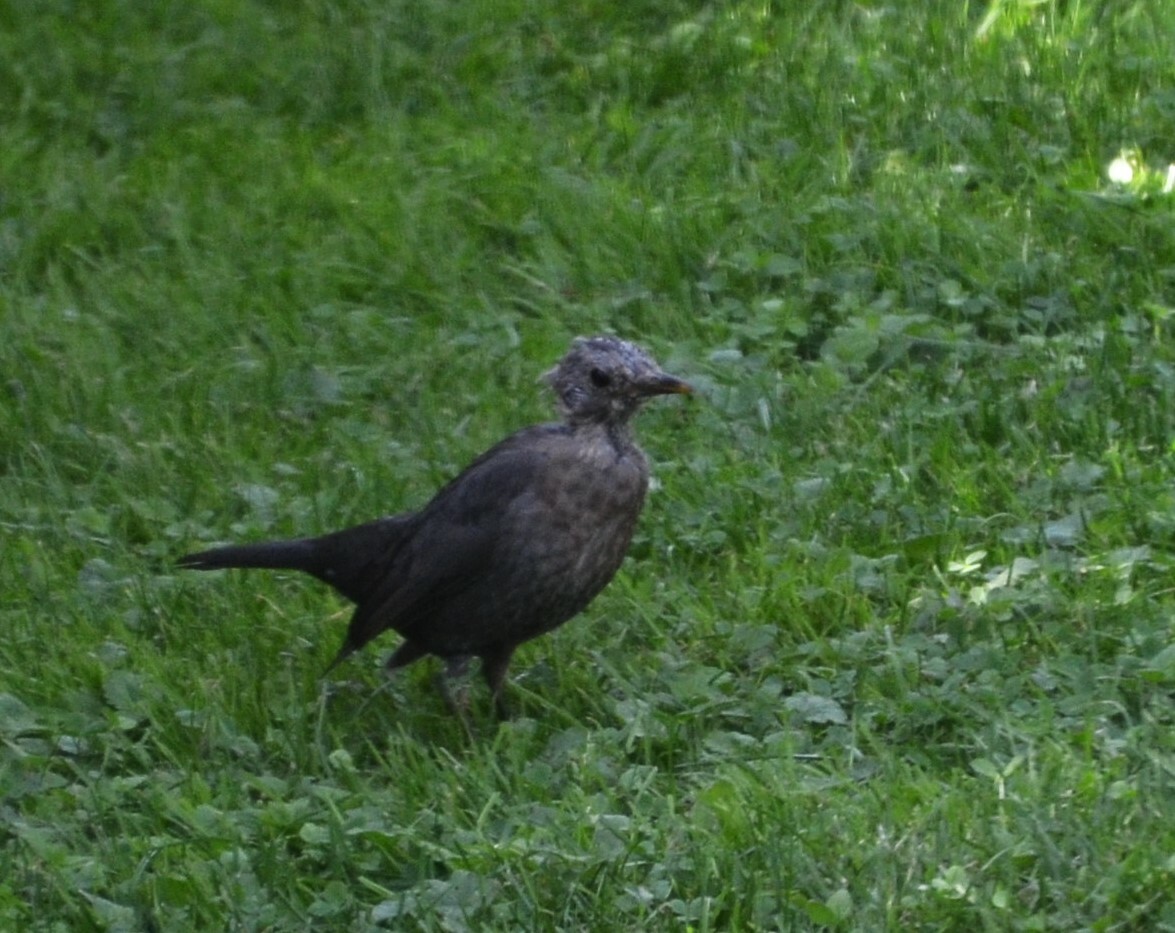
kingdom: Animalia
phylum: Chordata
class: Aves
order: Passeriformes
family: Turdidae
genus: Turdus
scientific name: Turdus merula
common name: Common blackbird
